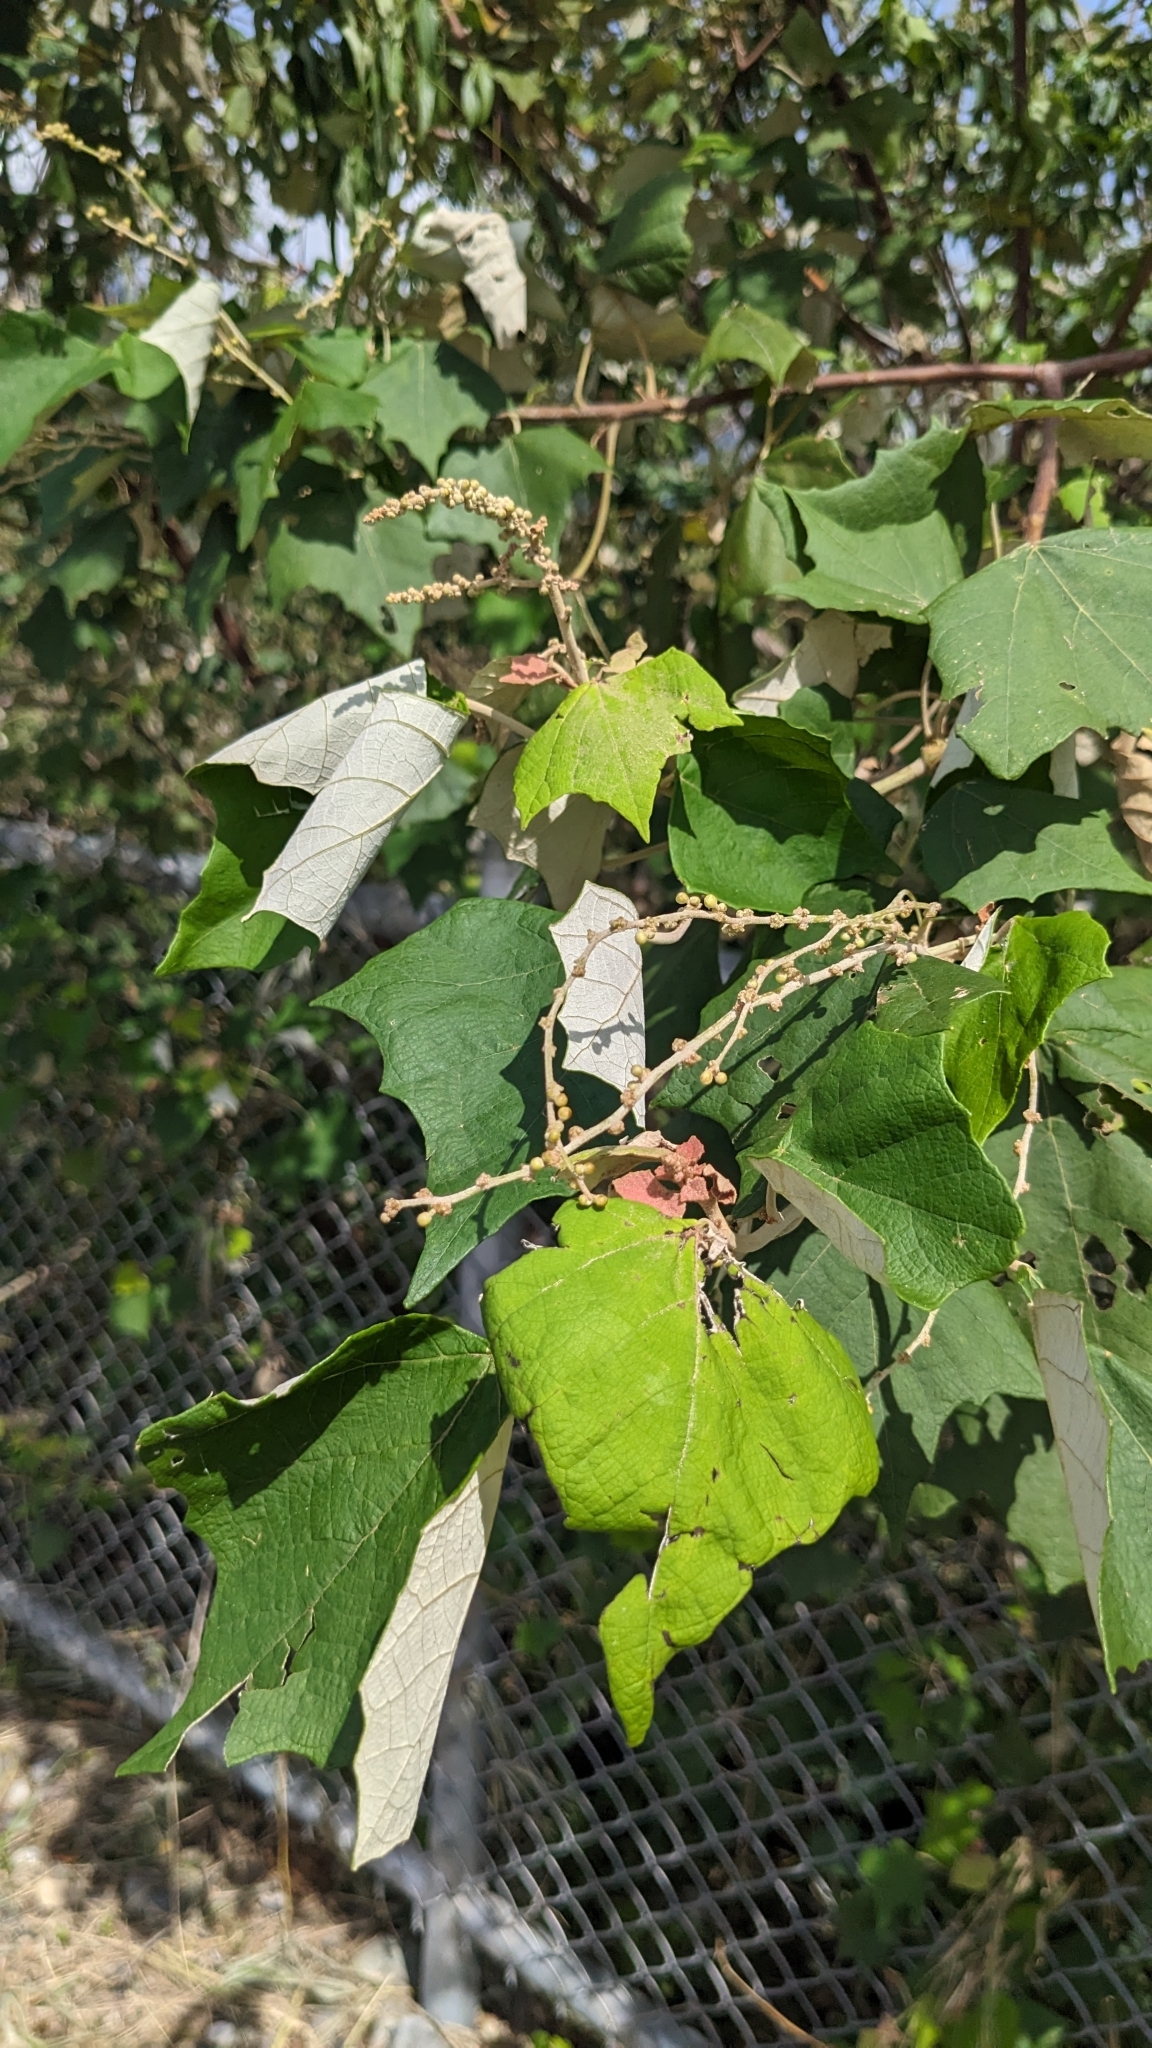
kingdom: Plantae
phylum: Tracheophyta
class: Magnoliopsida
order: Malpighiales
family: Euphorbiaceae
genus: Mallotus
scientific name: Mallotus paniculatus
